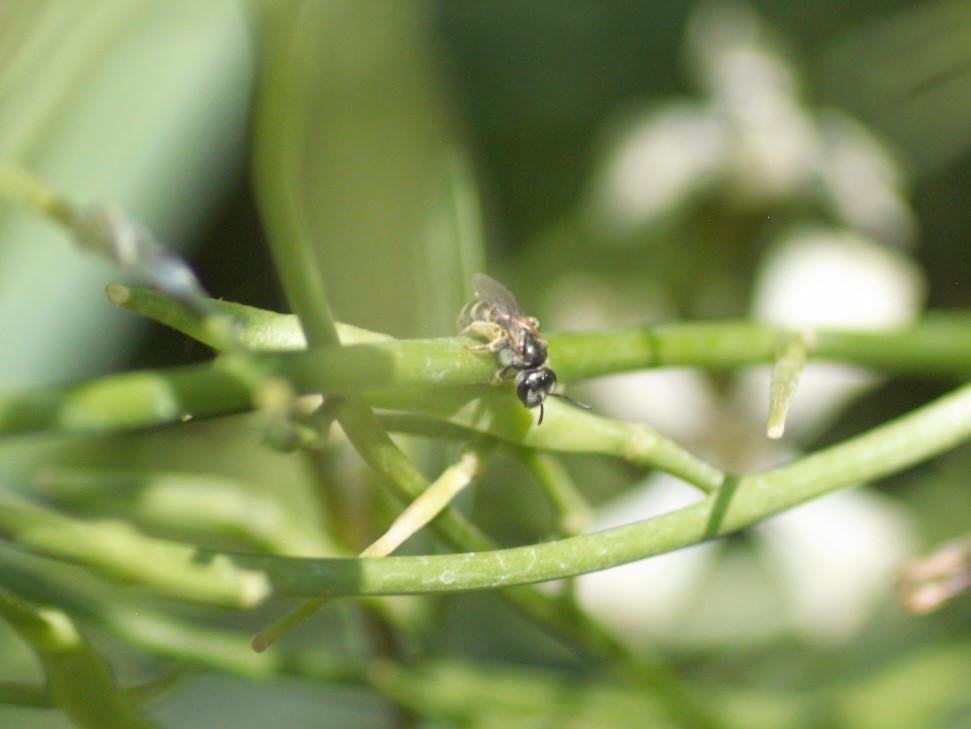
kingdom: Animalia
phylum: Arthropoda
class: Insecta
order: Hymenoptera
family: Halictidae
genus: Halictus
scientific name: Halictus tripartitus
